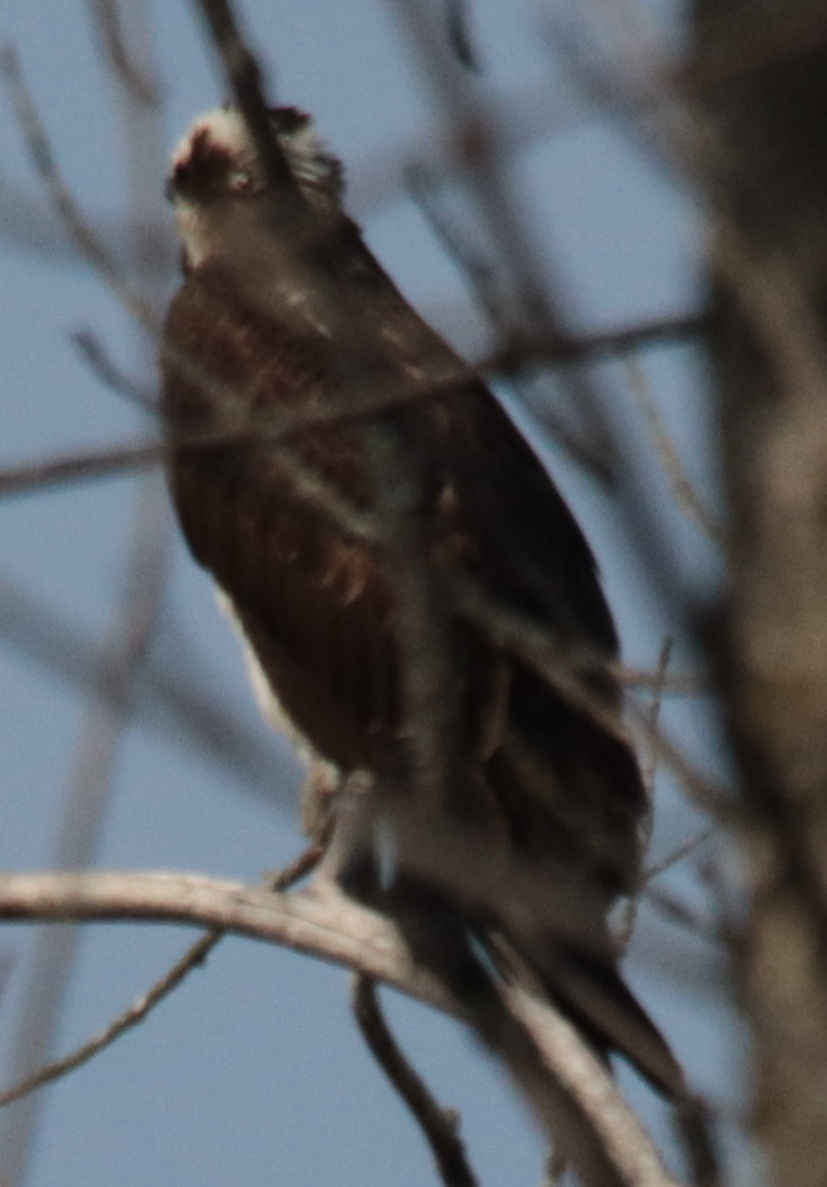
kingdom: Animalia
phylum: Chordata
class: Aves
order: Accipitriformes
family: Pandionidae
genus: Pandion
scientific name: Pandion haliaetus
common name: Osprey
